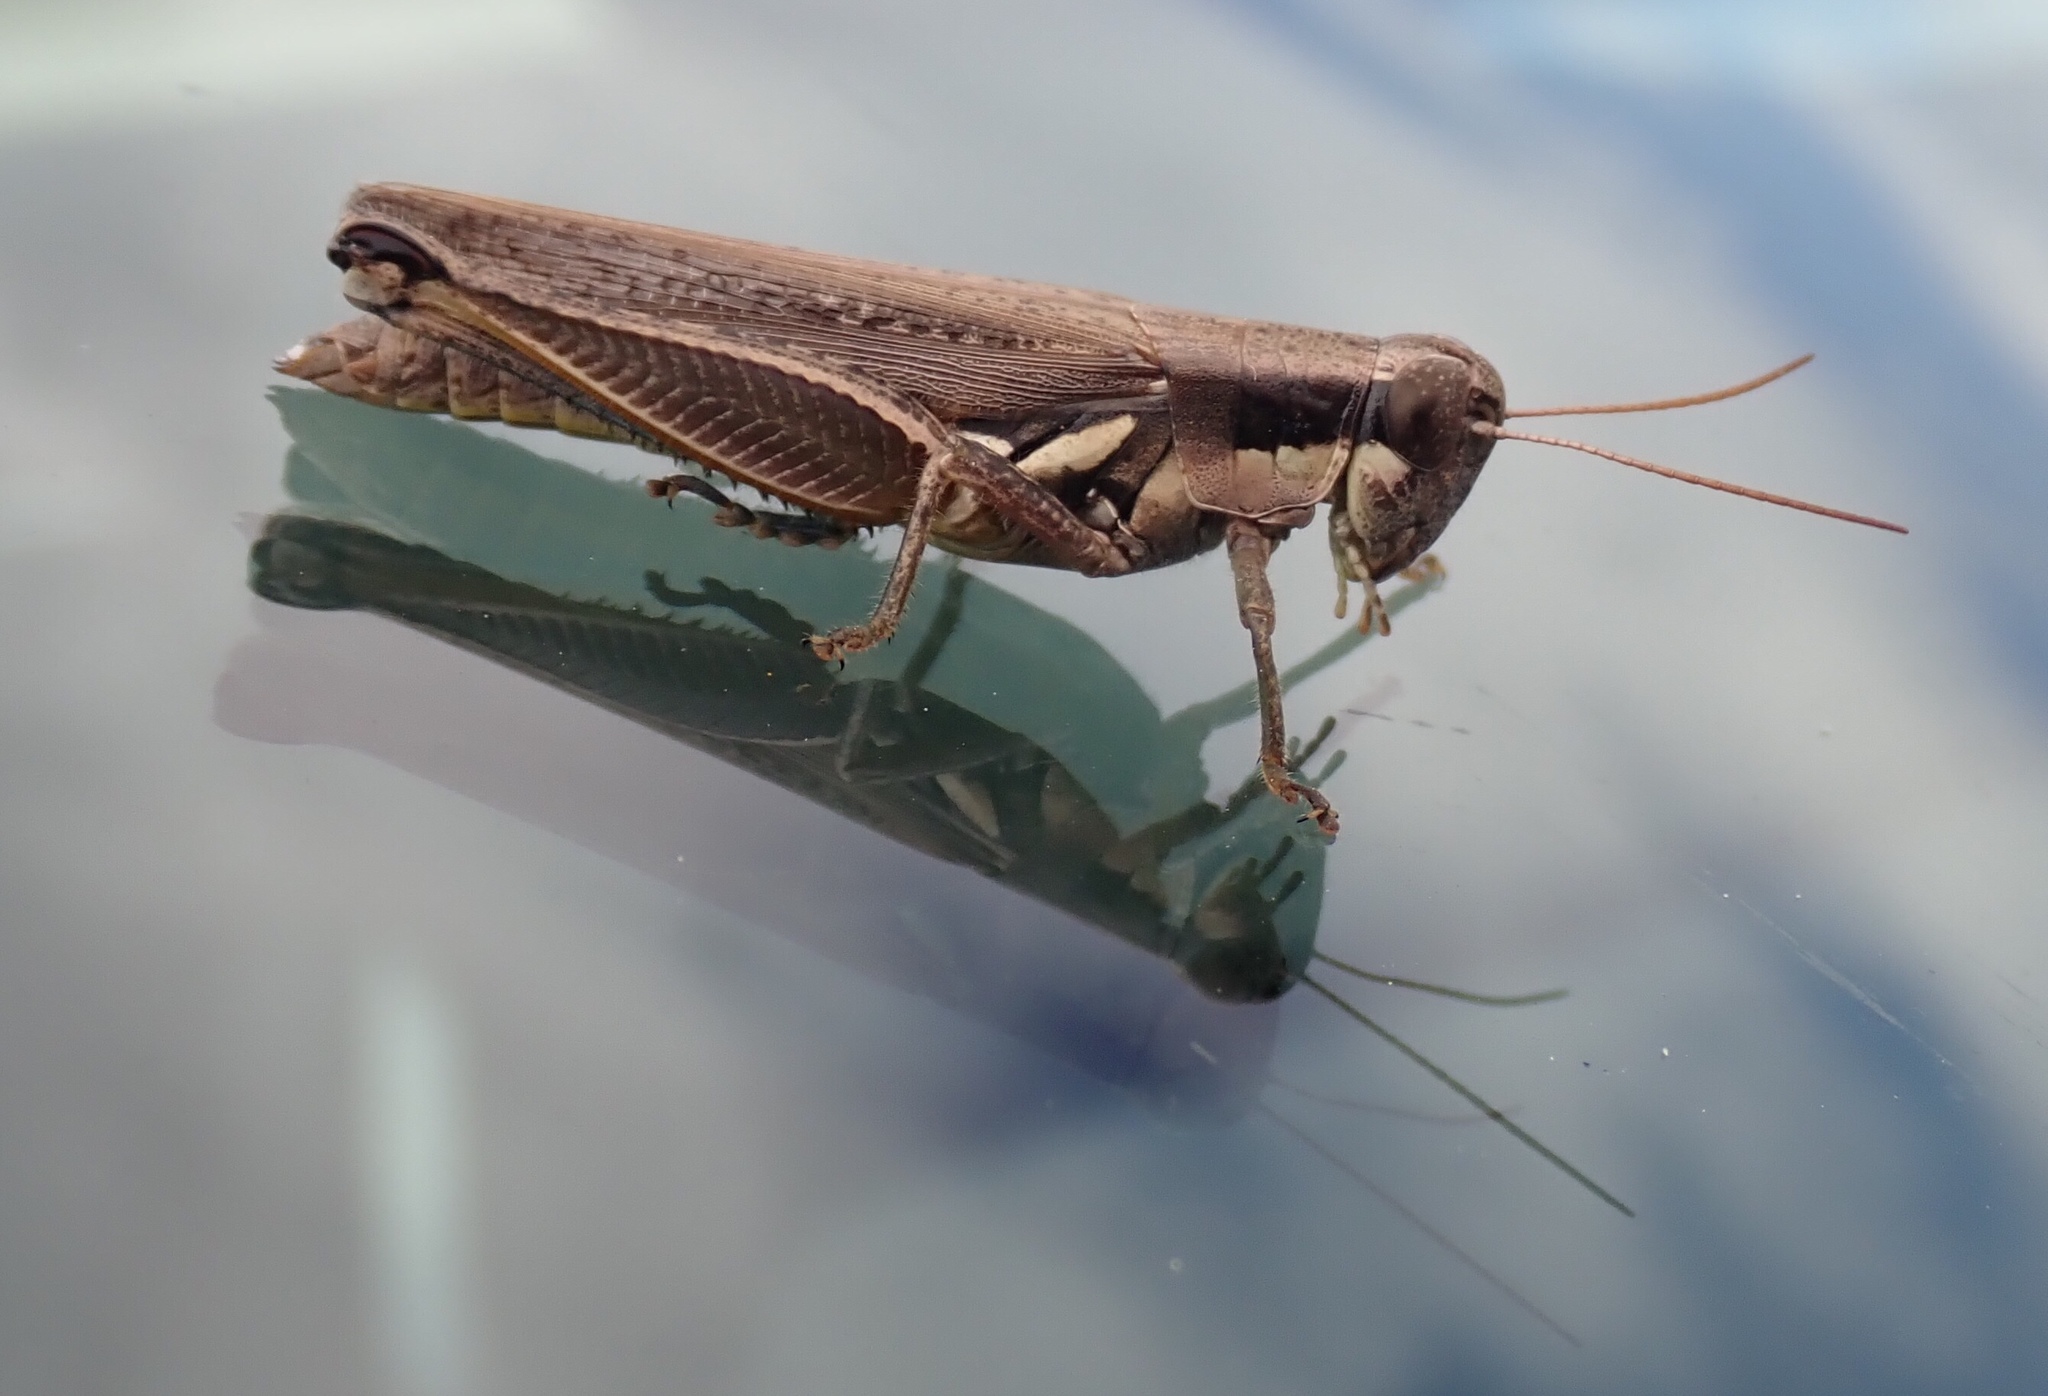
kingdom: Animalia
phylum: Arthropoda
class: Insecta
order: Orthoptera
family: Acrididae
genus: Paroxya
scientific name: Paroxya atlantica
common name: Atlantic grasshopper
